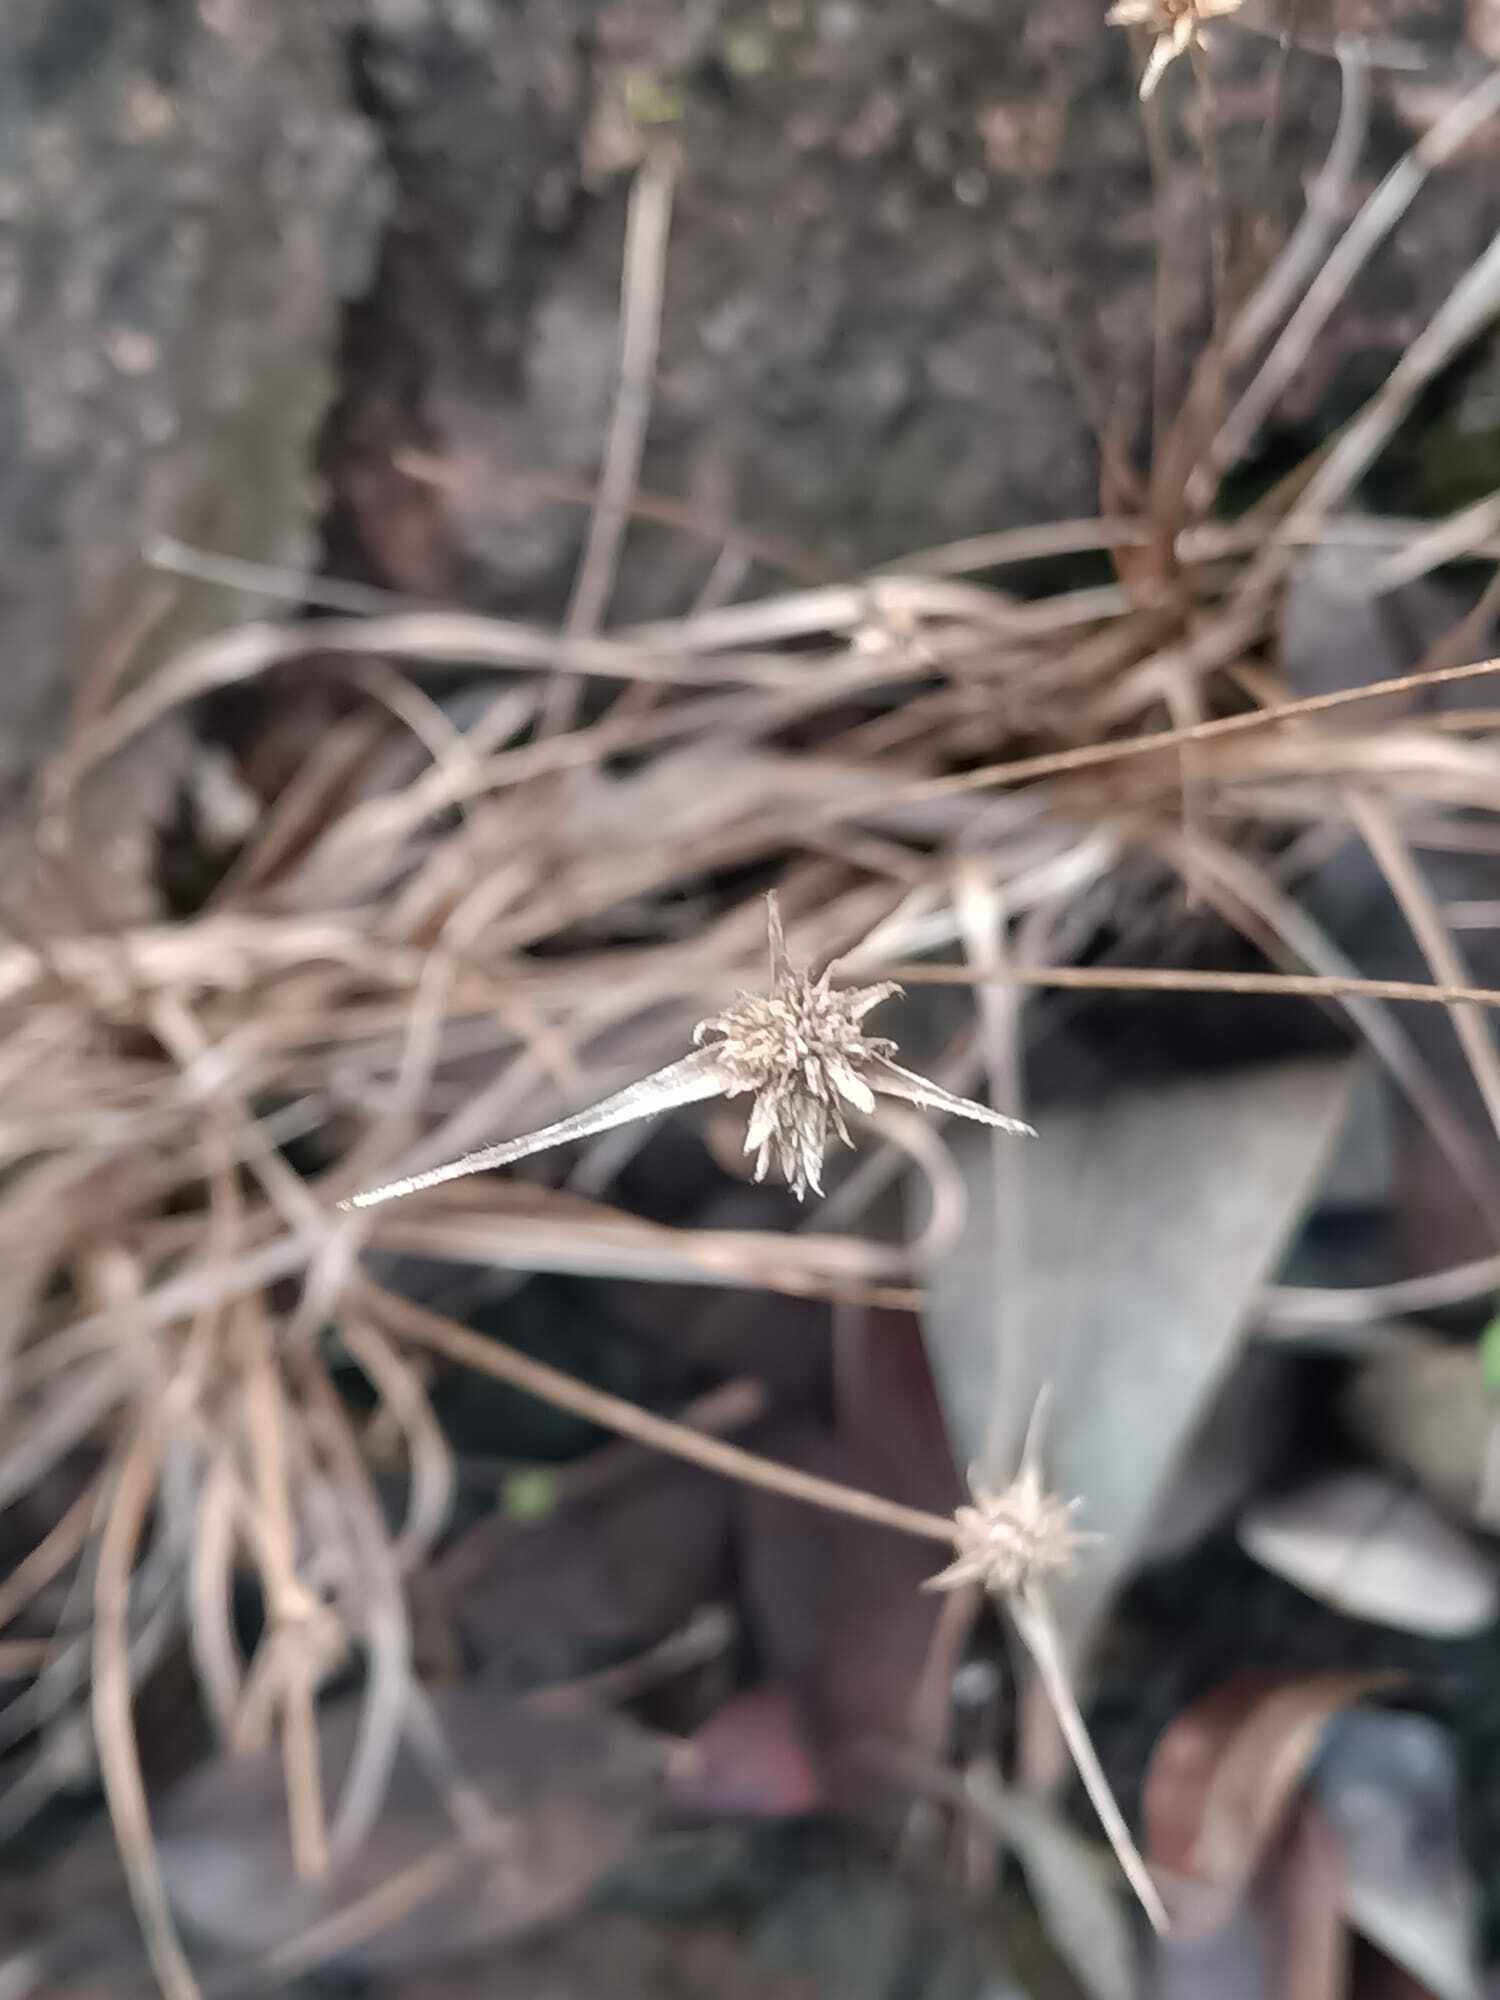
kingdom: Plantae
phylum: Tracheophyta
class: Liliopsida
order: Poales
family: Cyperaceae
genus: Rhynchospora
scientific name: Rhynchospora barbata
